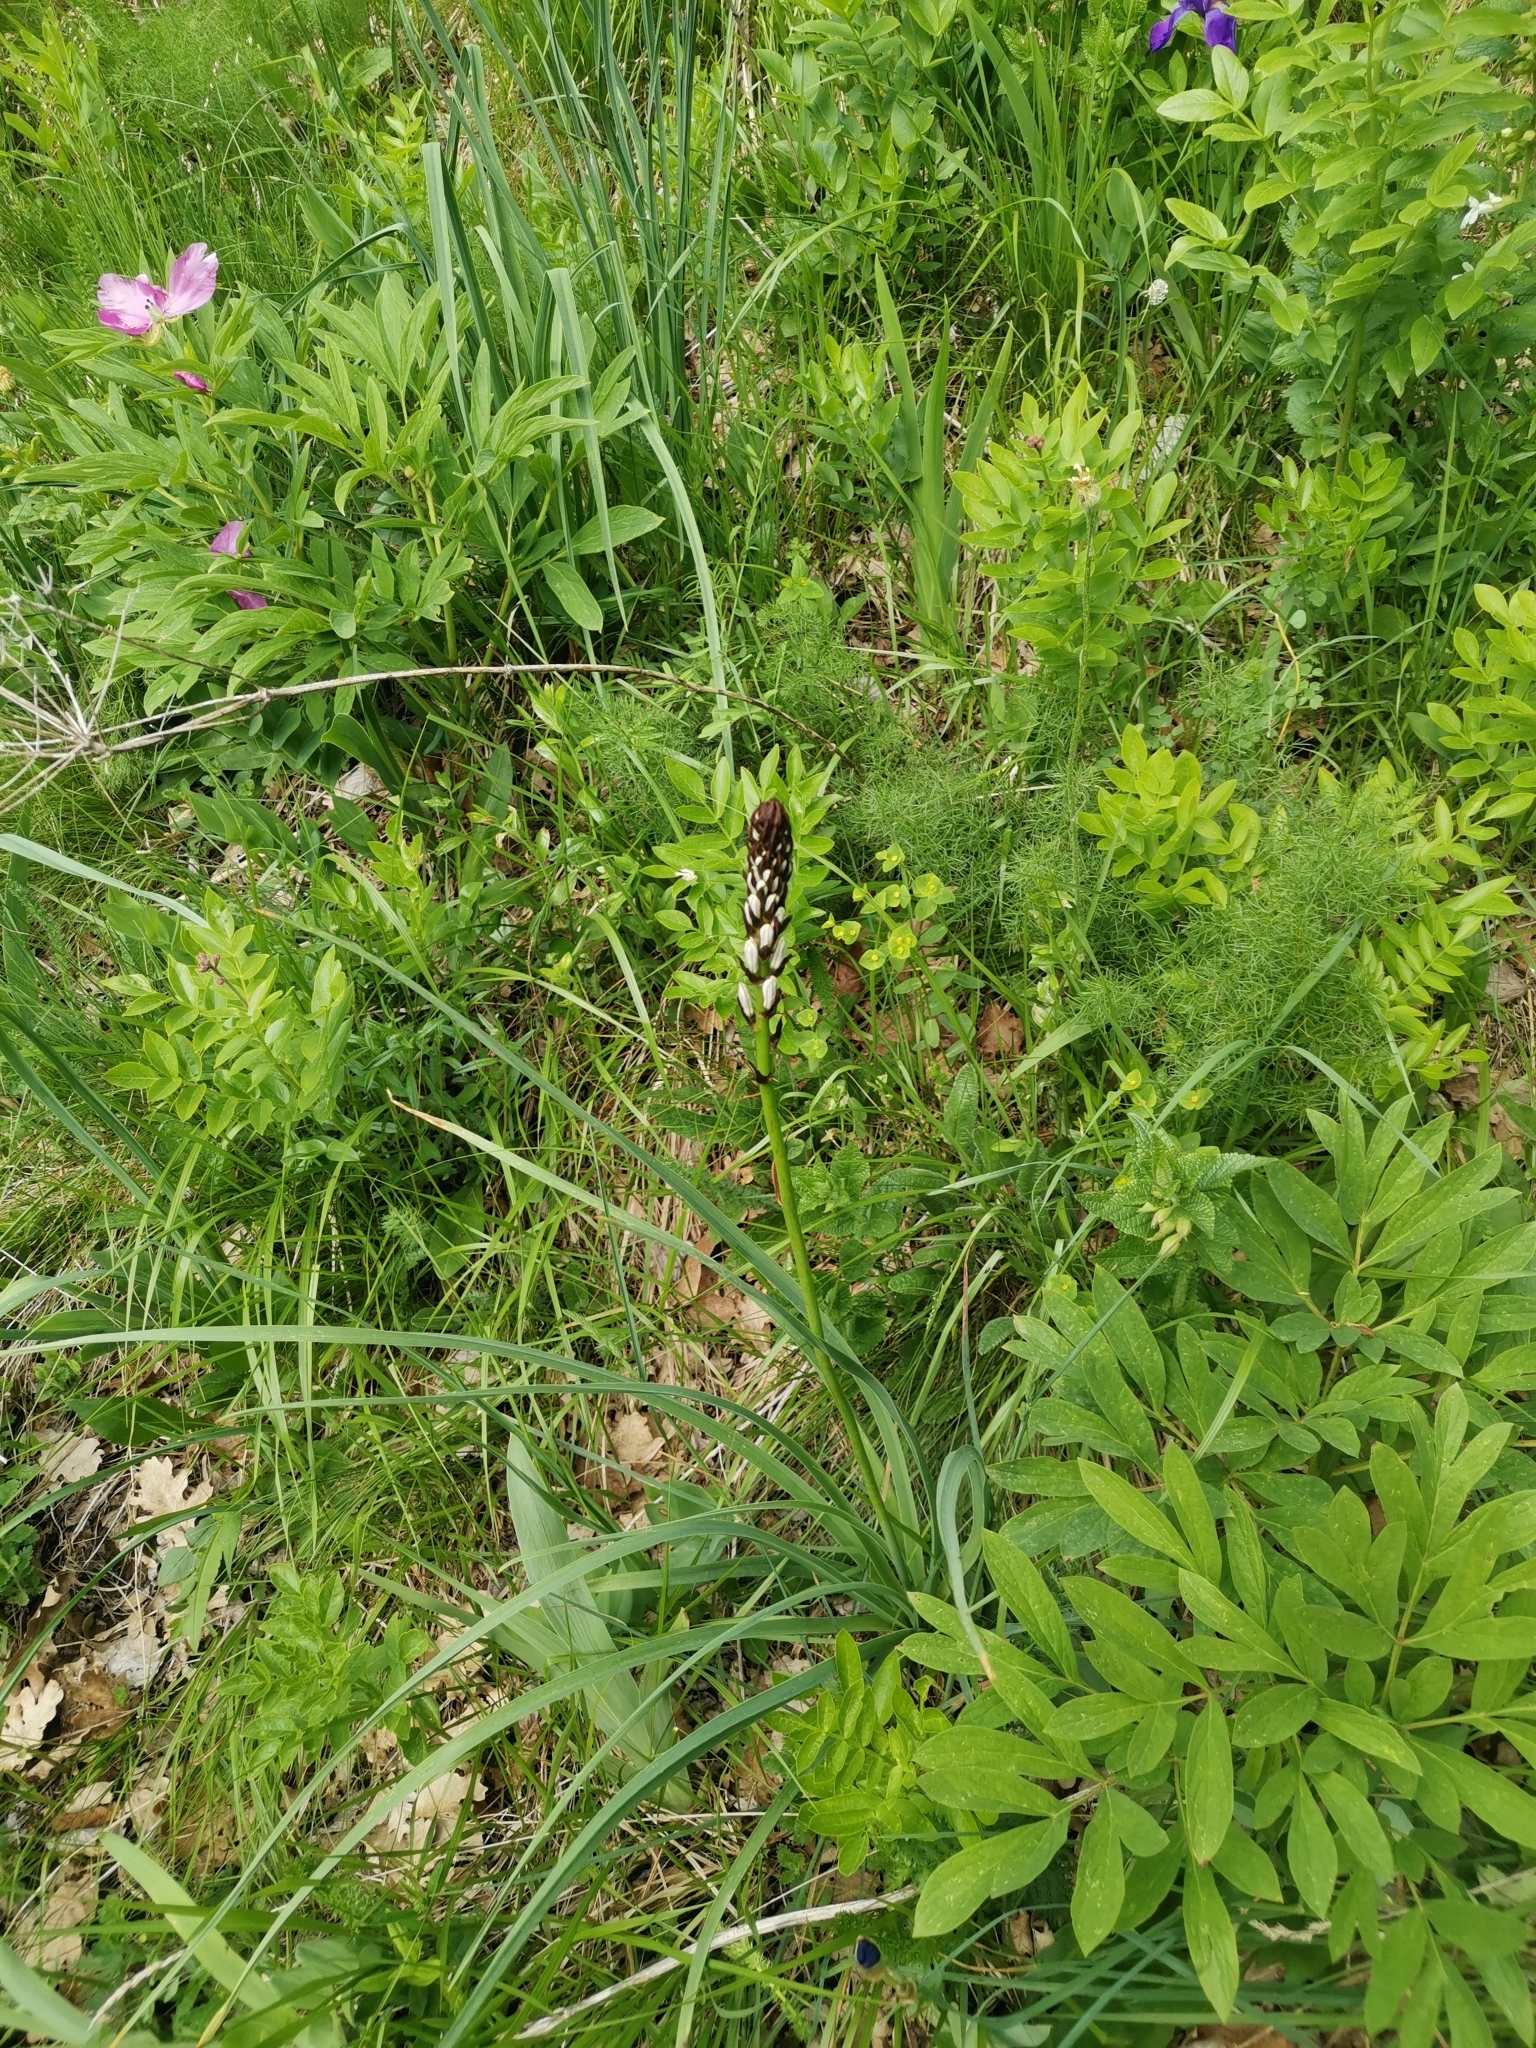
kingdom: Plantae
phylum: Tracheophyta
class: Liliopsida
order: Asparagales
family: Asphodelaceae
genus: Asphodelus
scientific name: Asphodelus albus
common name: White asphodel
